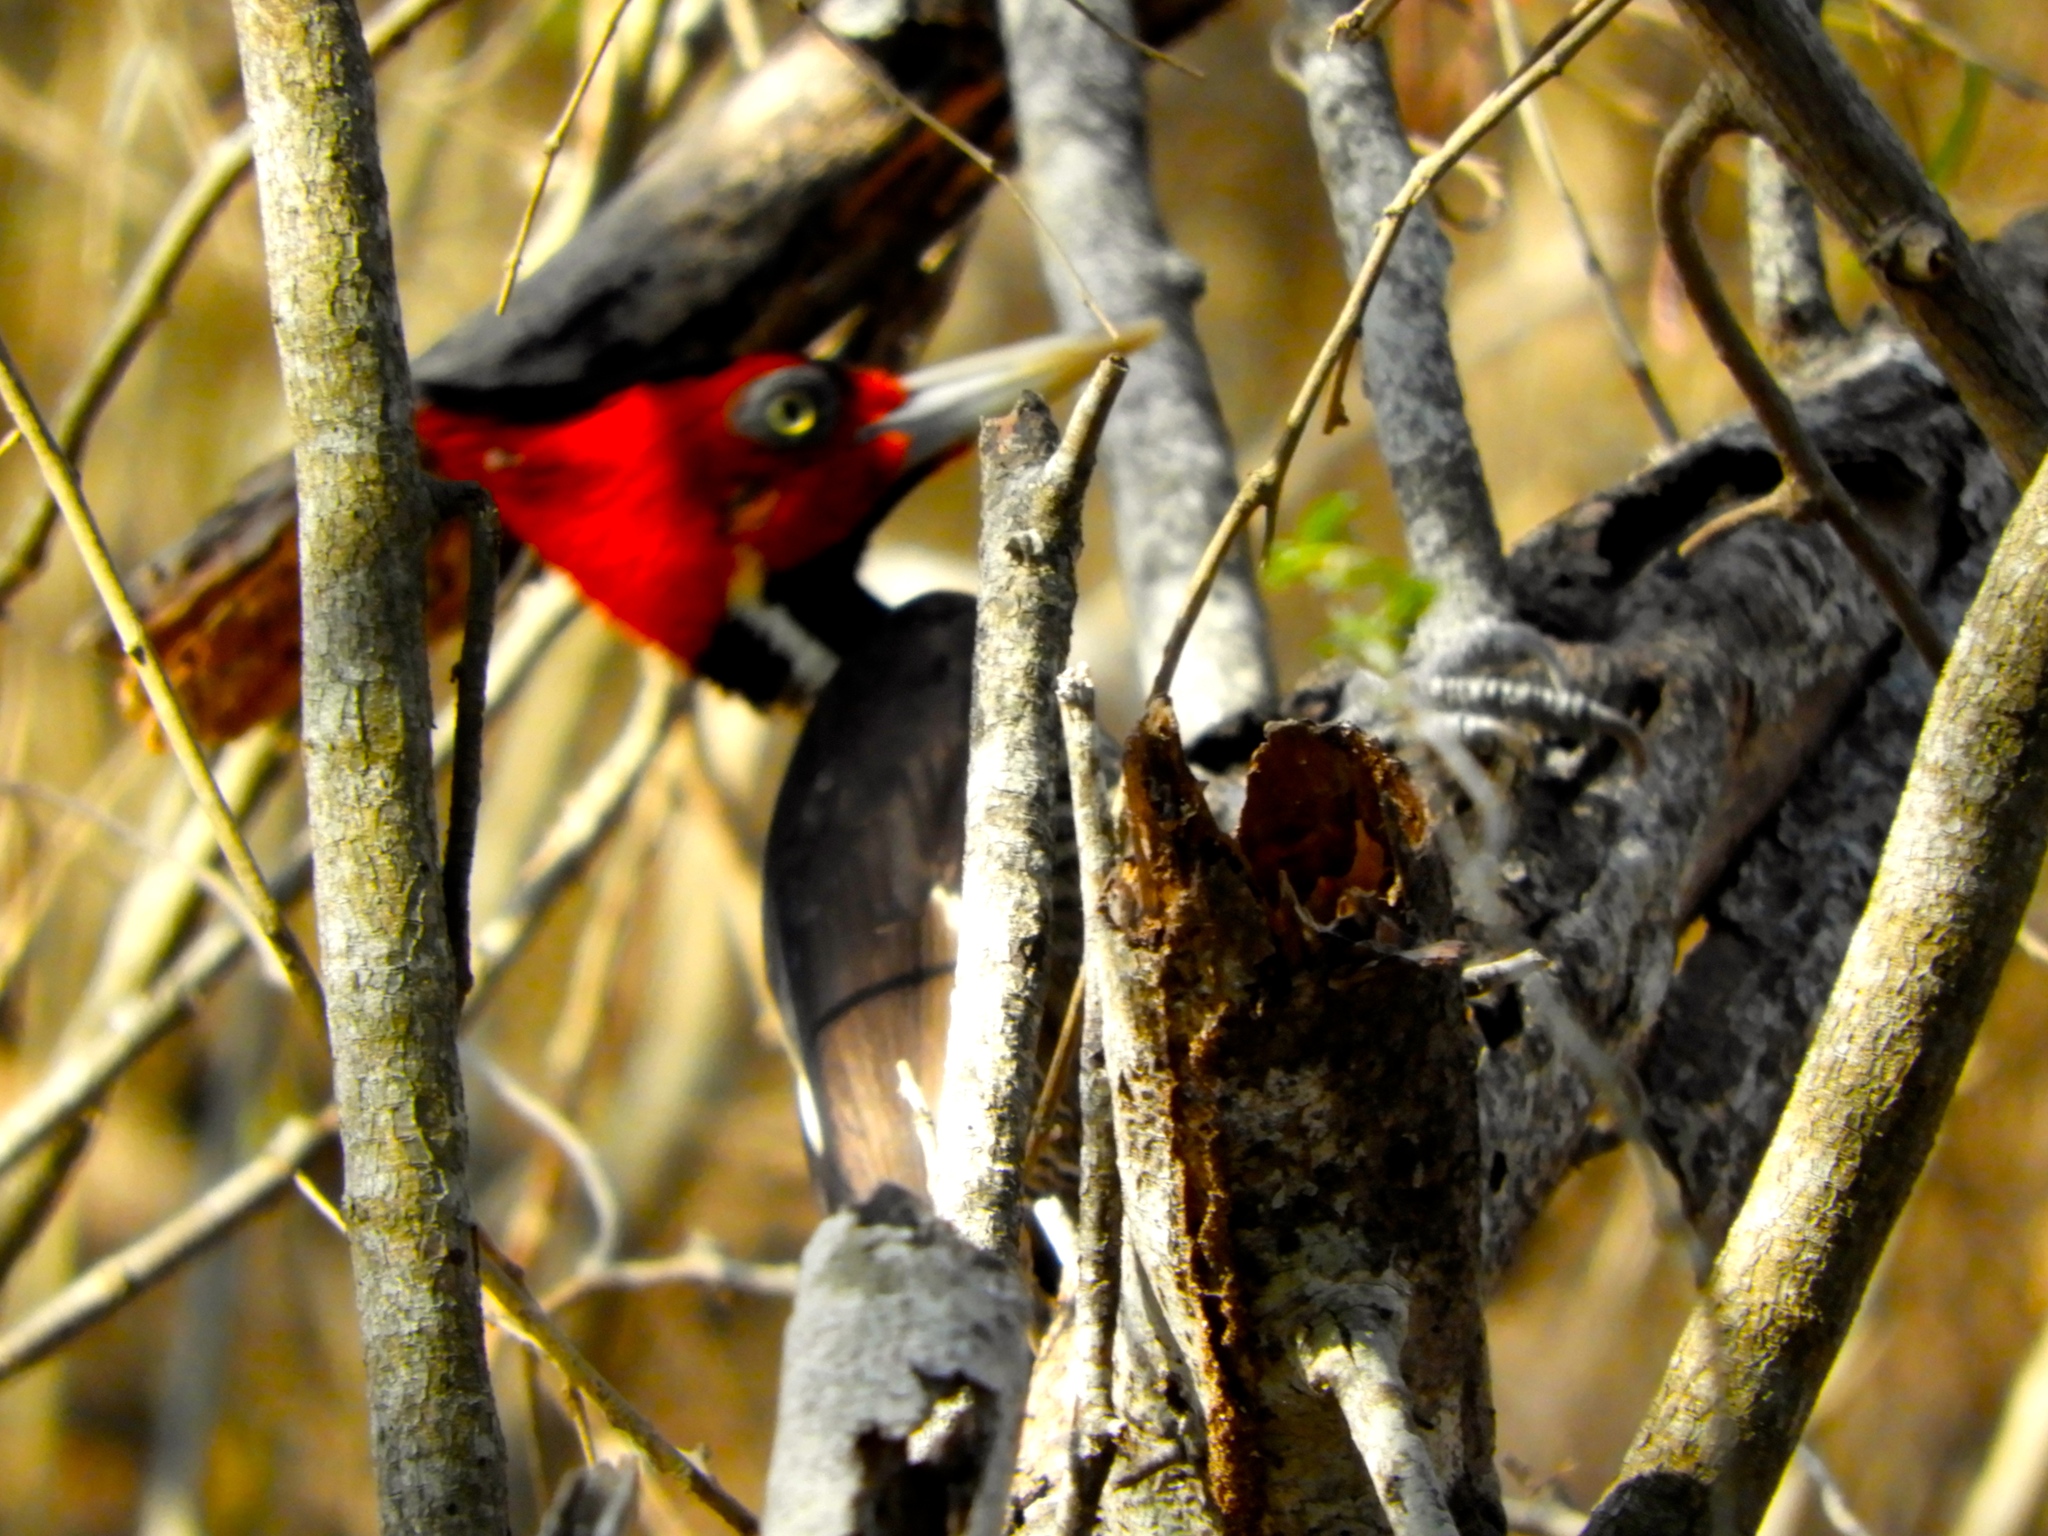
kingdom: Animalia
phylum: Chordata
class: Aves
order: Piciformes
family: Picidae
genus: Campephilus
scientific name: Campephilus guatemalensis
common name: Pale-billed woodpecker
